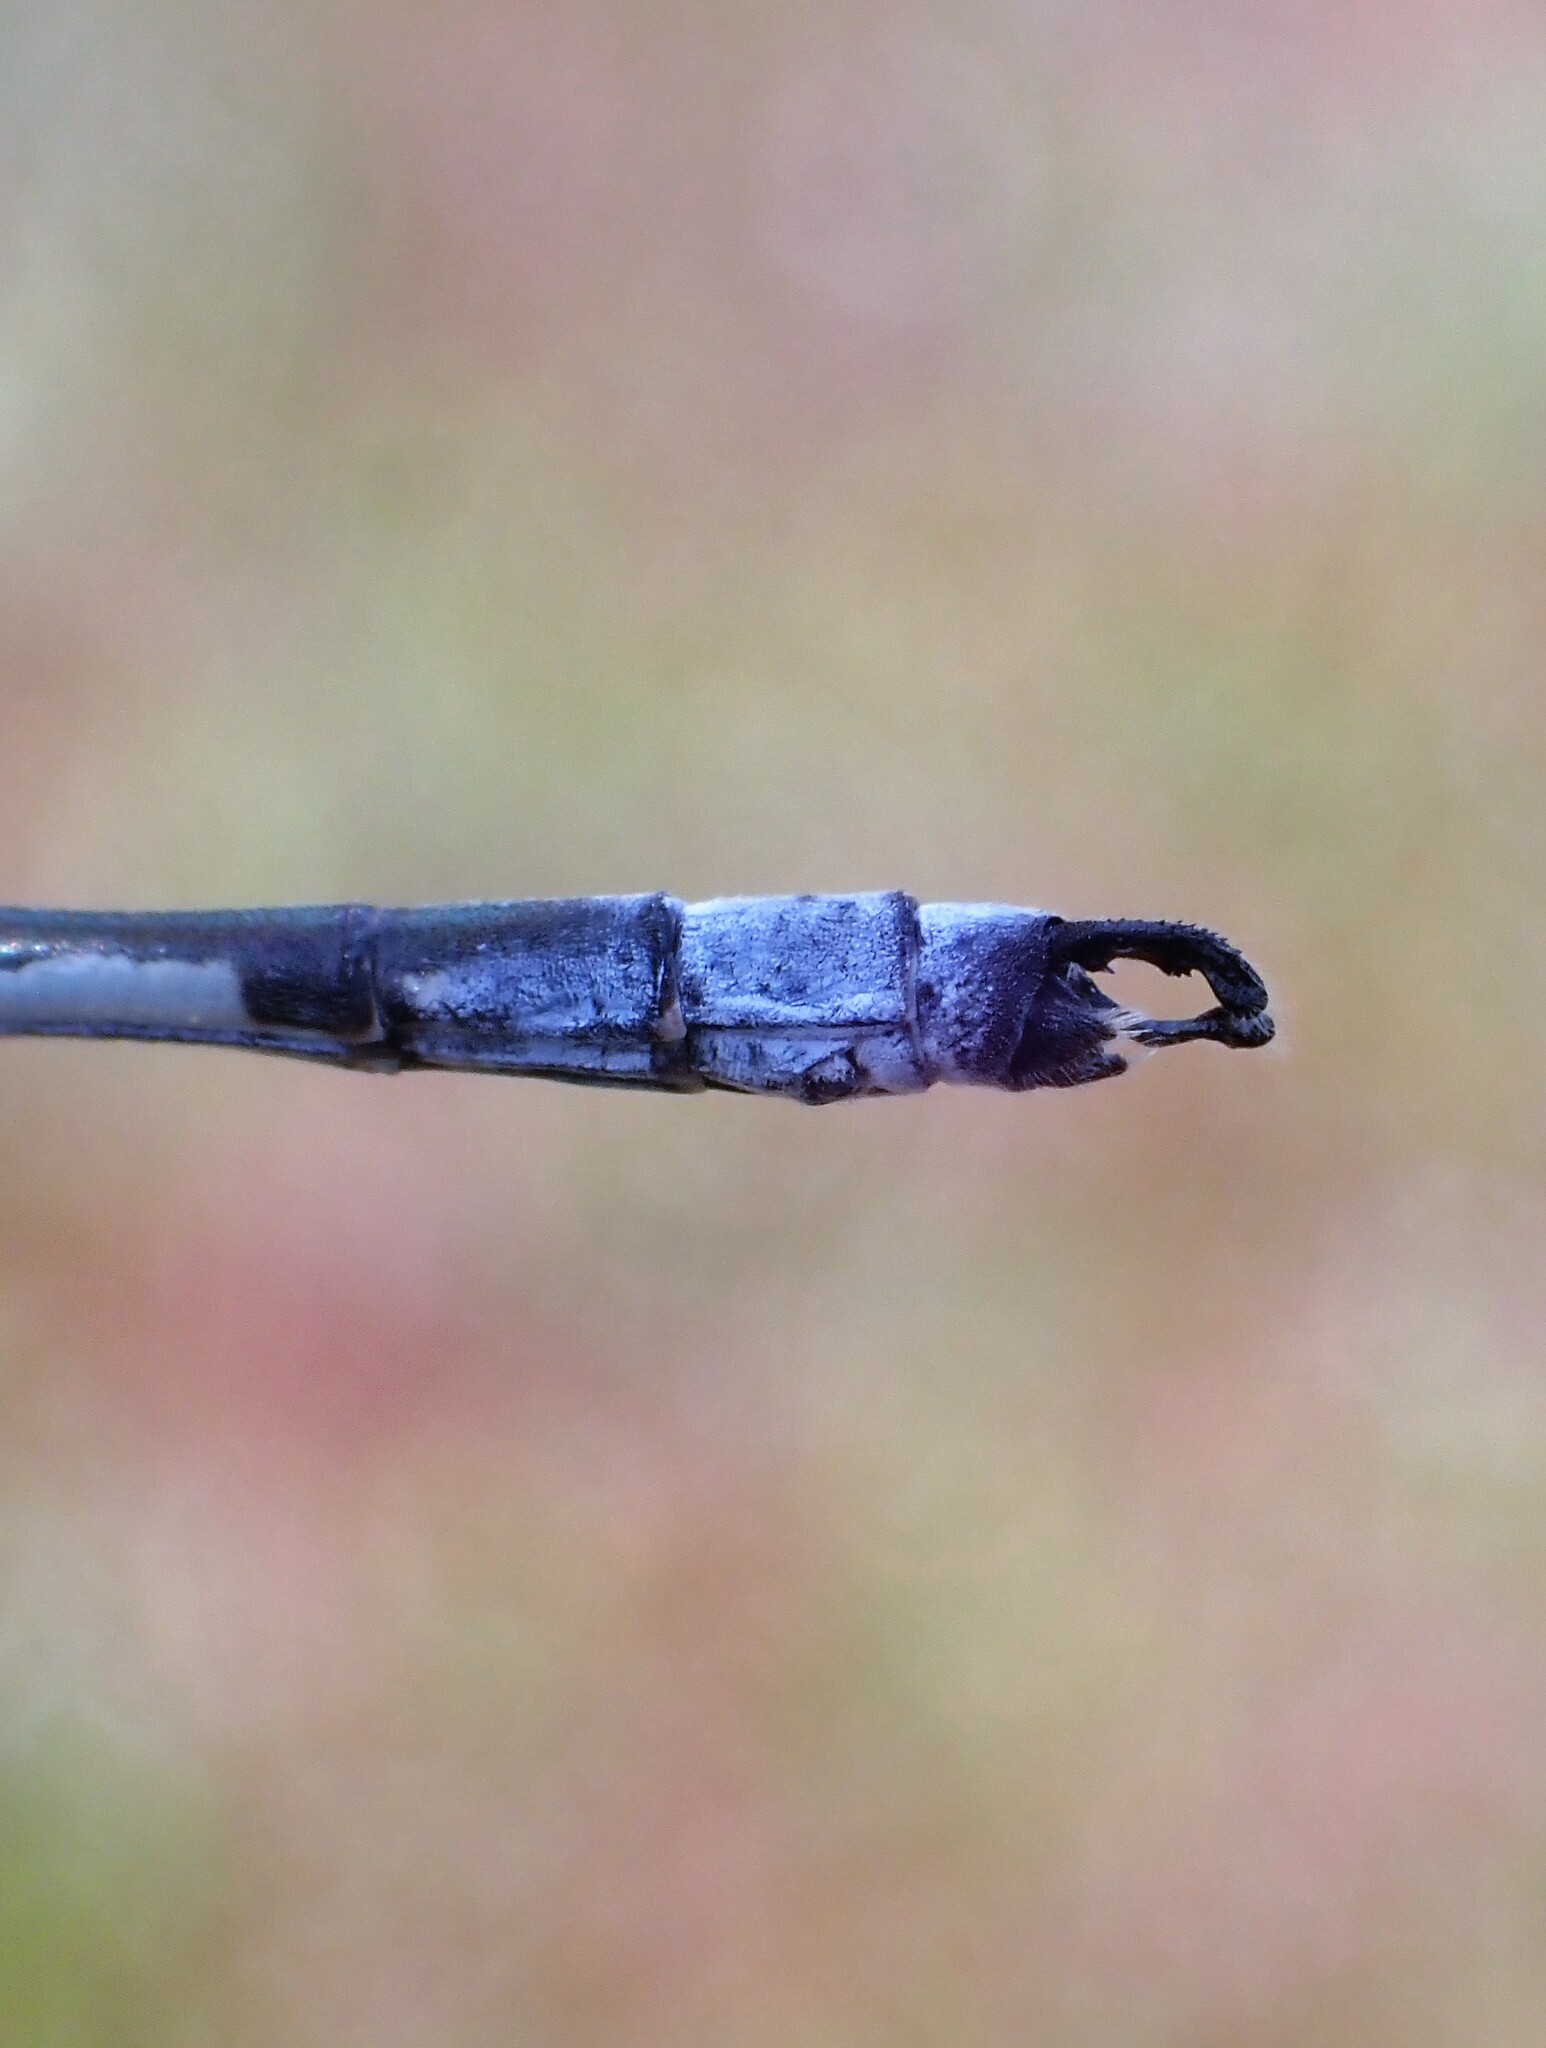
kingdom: Animalia
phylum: Arthropoda
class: Insecta
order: Odonata
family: Lestidae
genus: Lestes
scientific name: Lestes eurinus
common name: Amber-winged spreadwing
